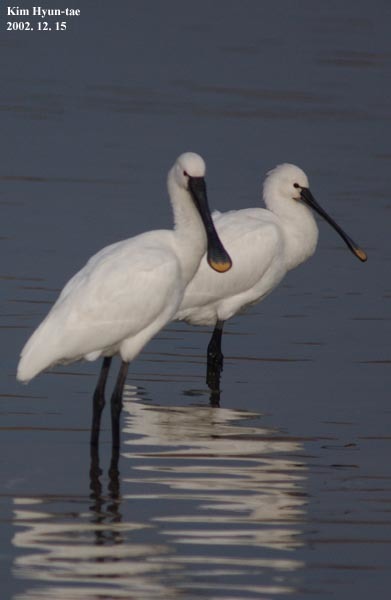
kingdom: Animalia
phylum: Chordata
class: Aves
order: Pelecaniformes
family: Threskiornithidae
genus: Platalea
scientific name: Platalea leucorodia
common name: Eurasian spoonbill
